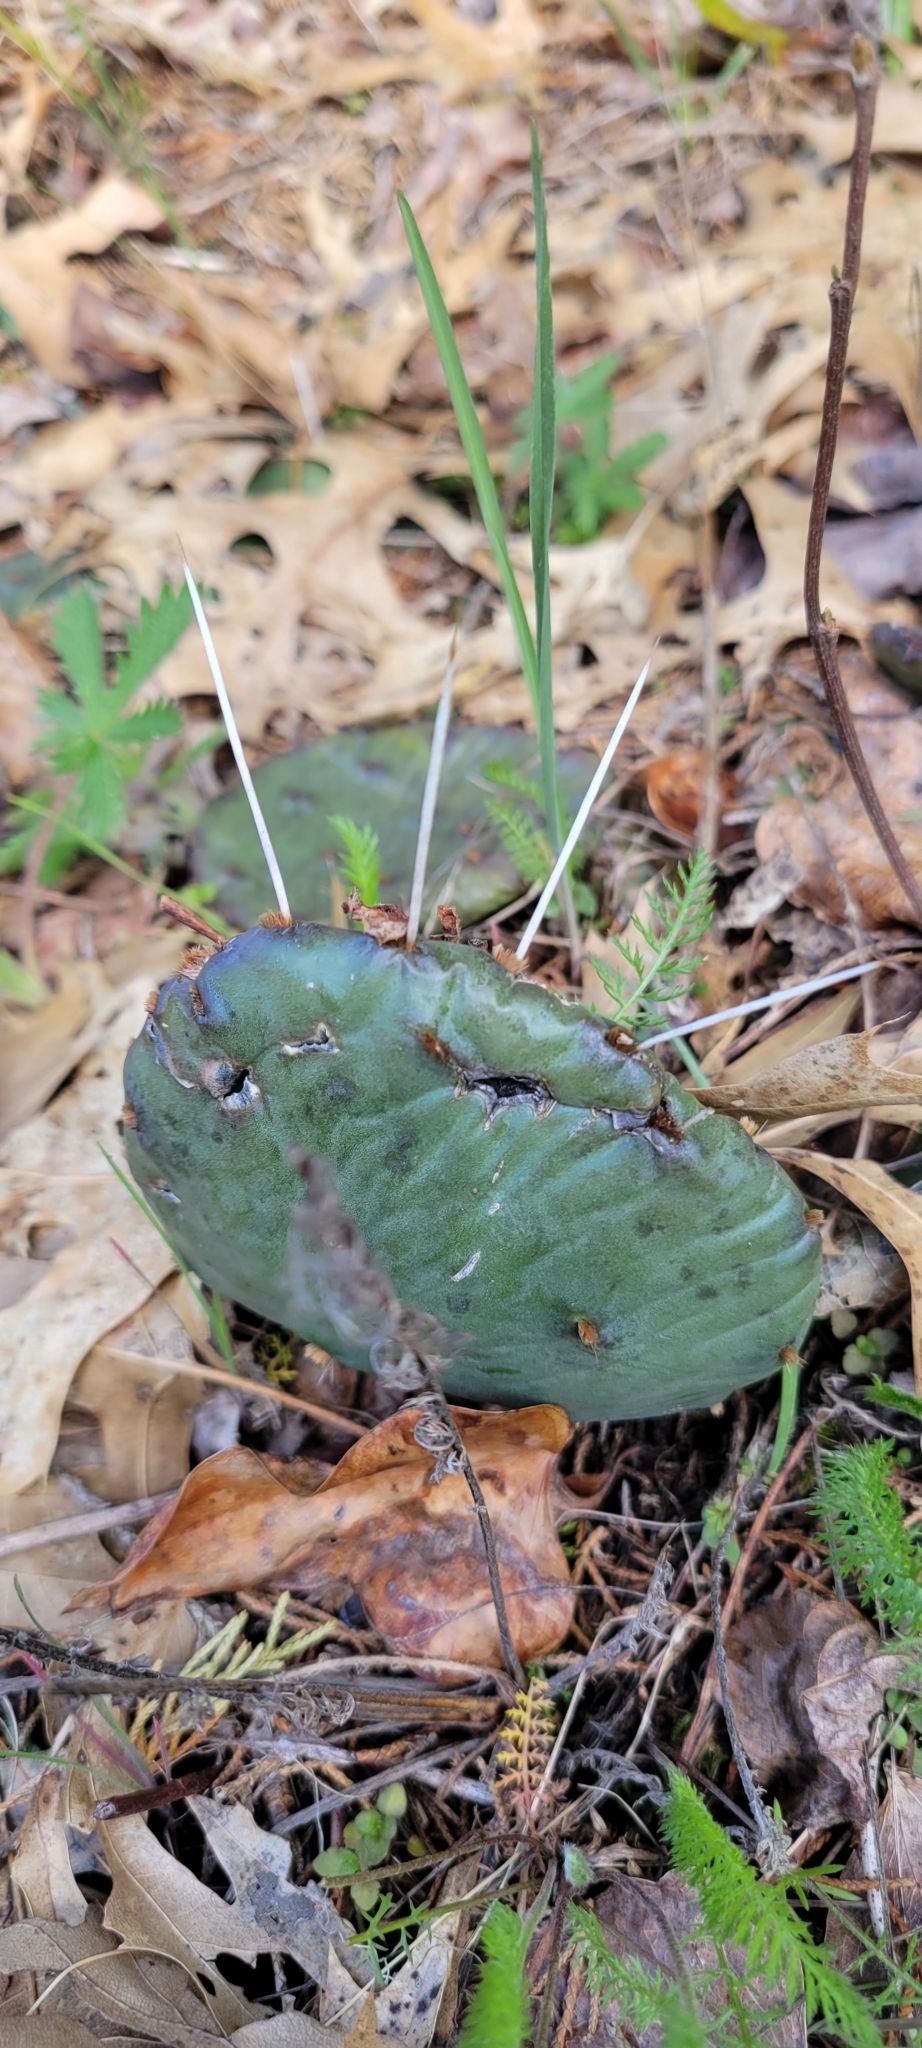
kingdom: Plantae
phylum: Tracheophyta
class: Magnoliopsida
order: Caryophyllales
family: Cactaceae
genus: Opuntia
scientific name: Opuntia humifusa
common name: Eastern prickly-pear
